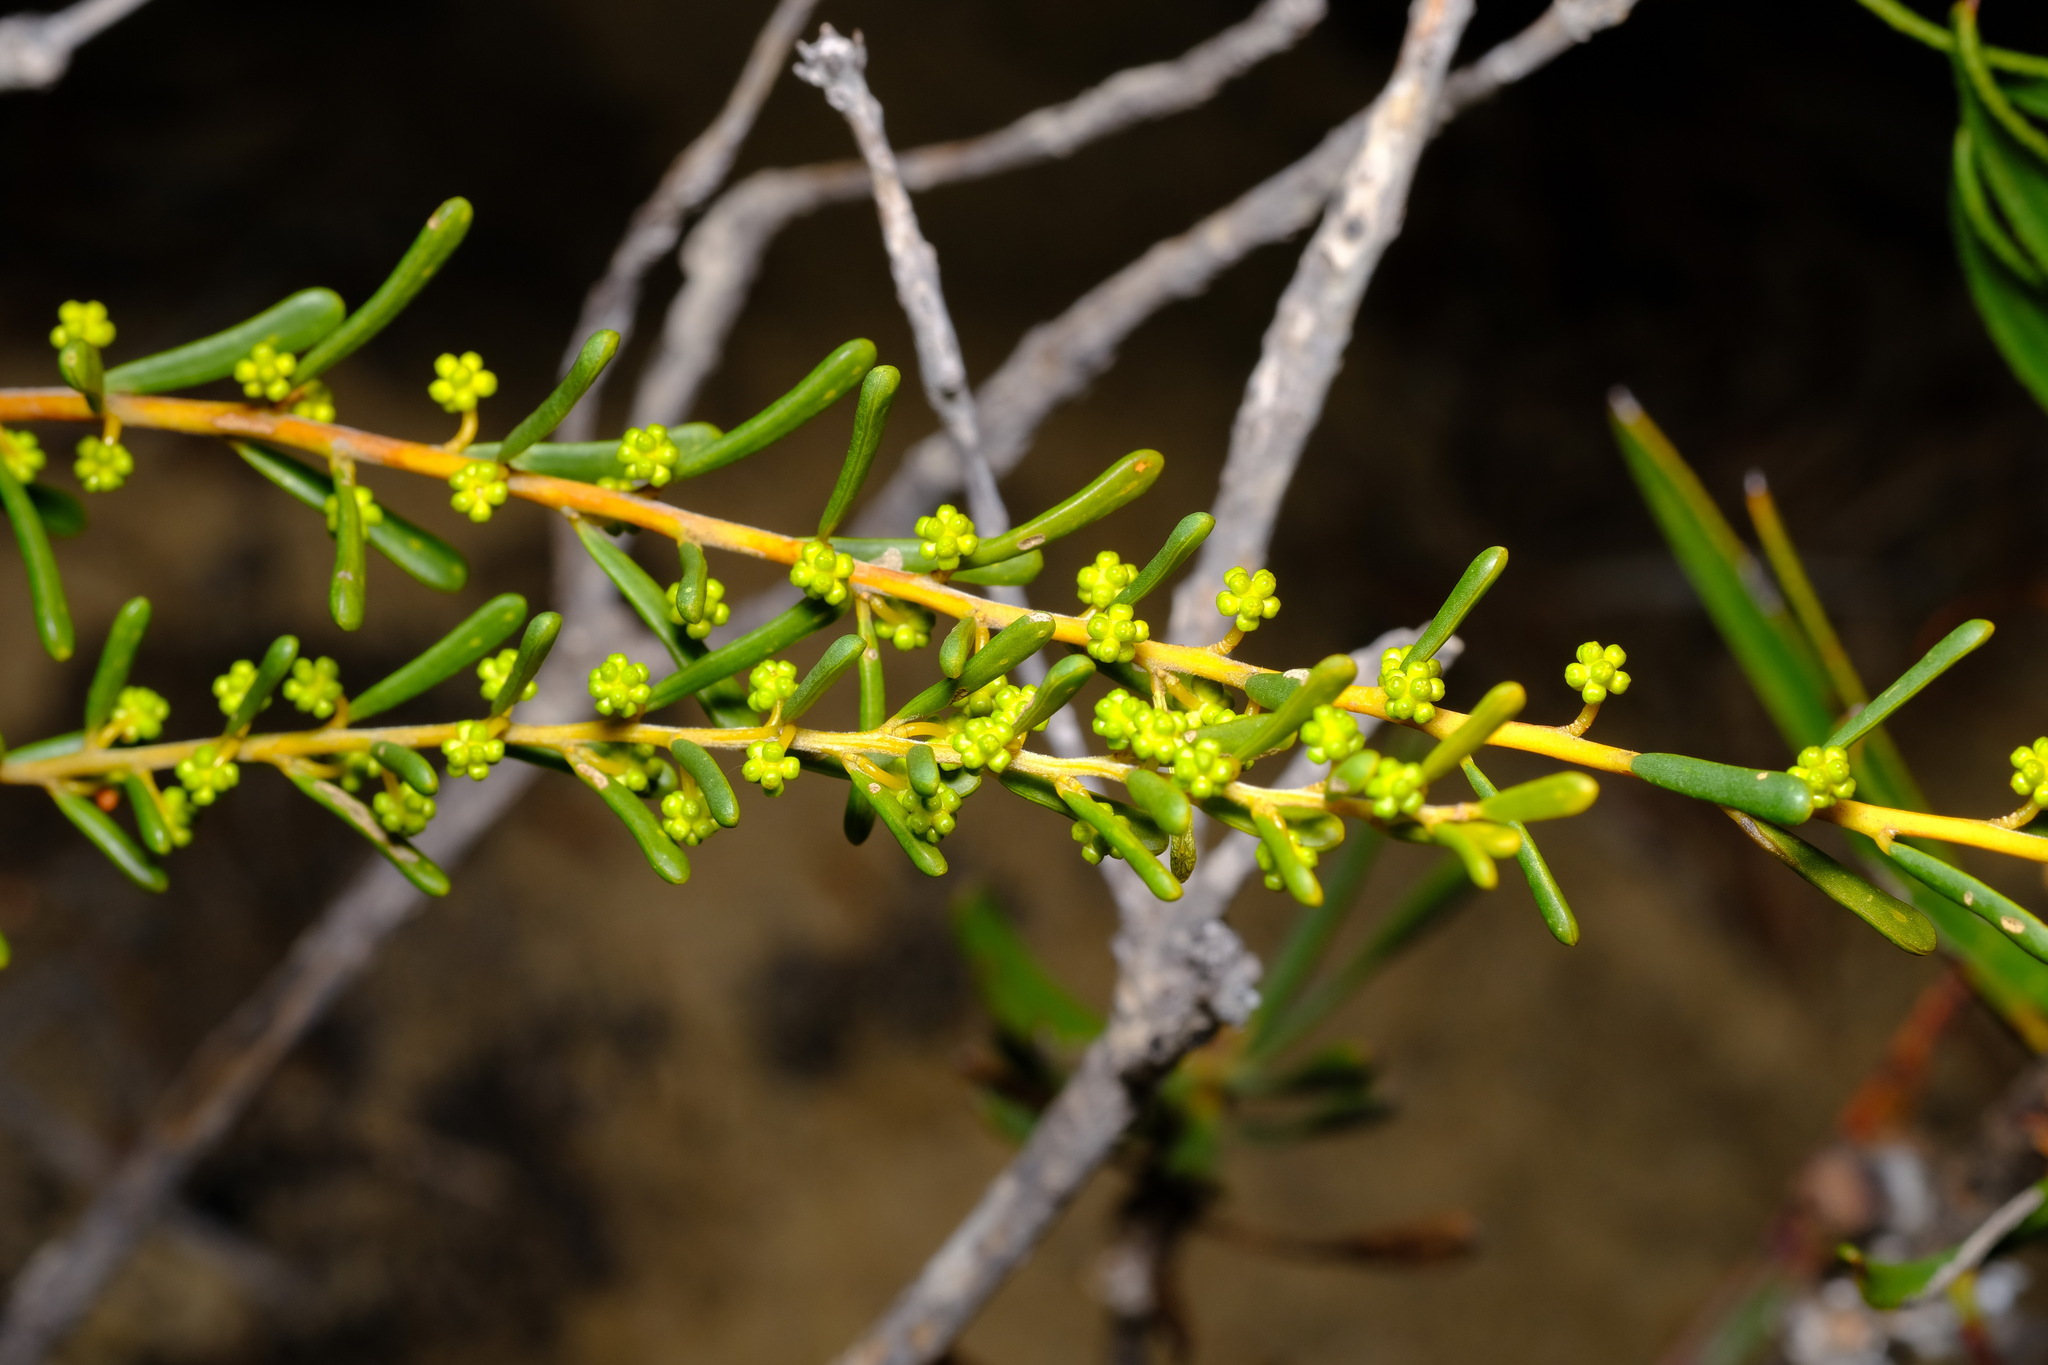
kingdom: Plantae
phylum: Tracheophyta
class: Magnoliopsida
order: Fabales
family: Fabaceae
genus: Acacia
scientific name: Acacia spathulifolia
